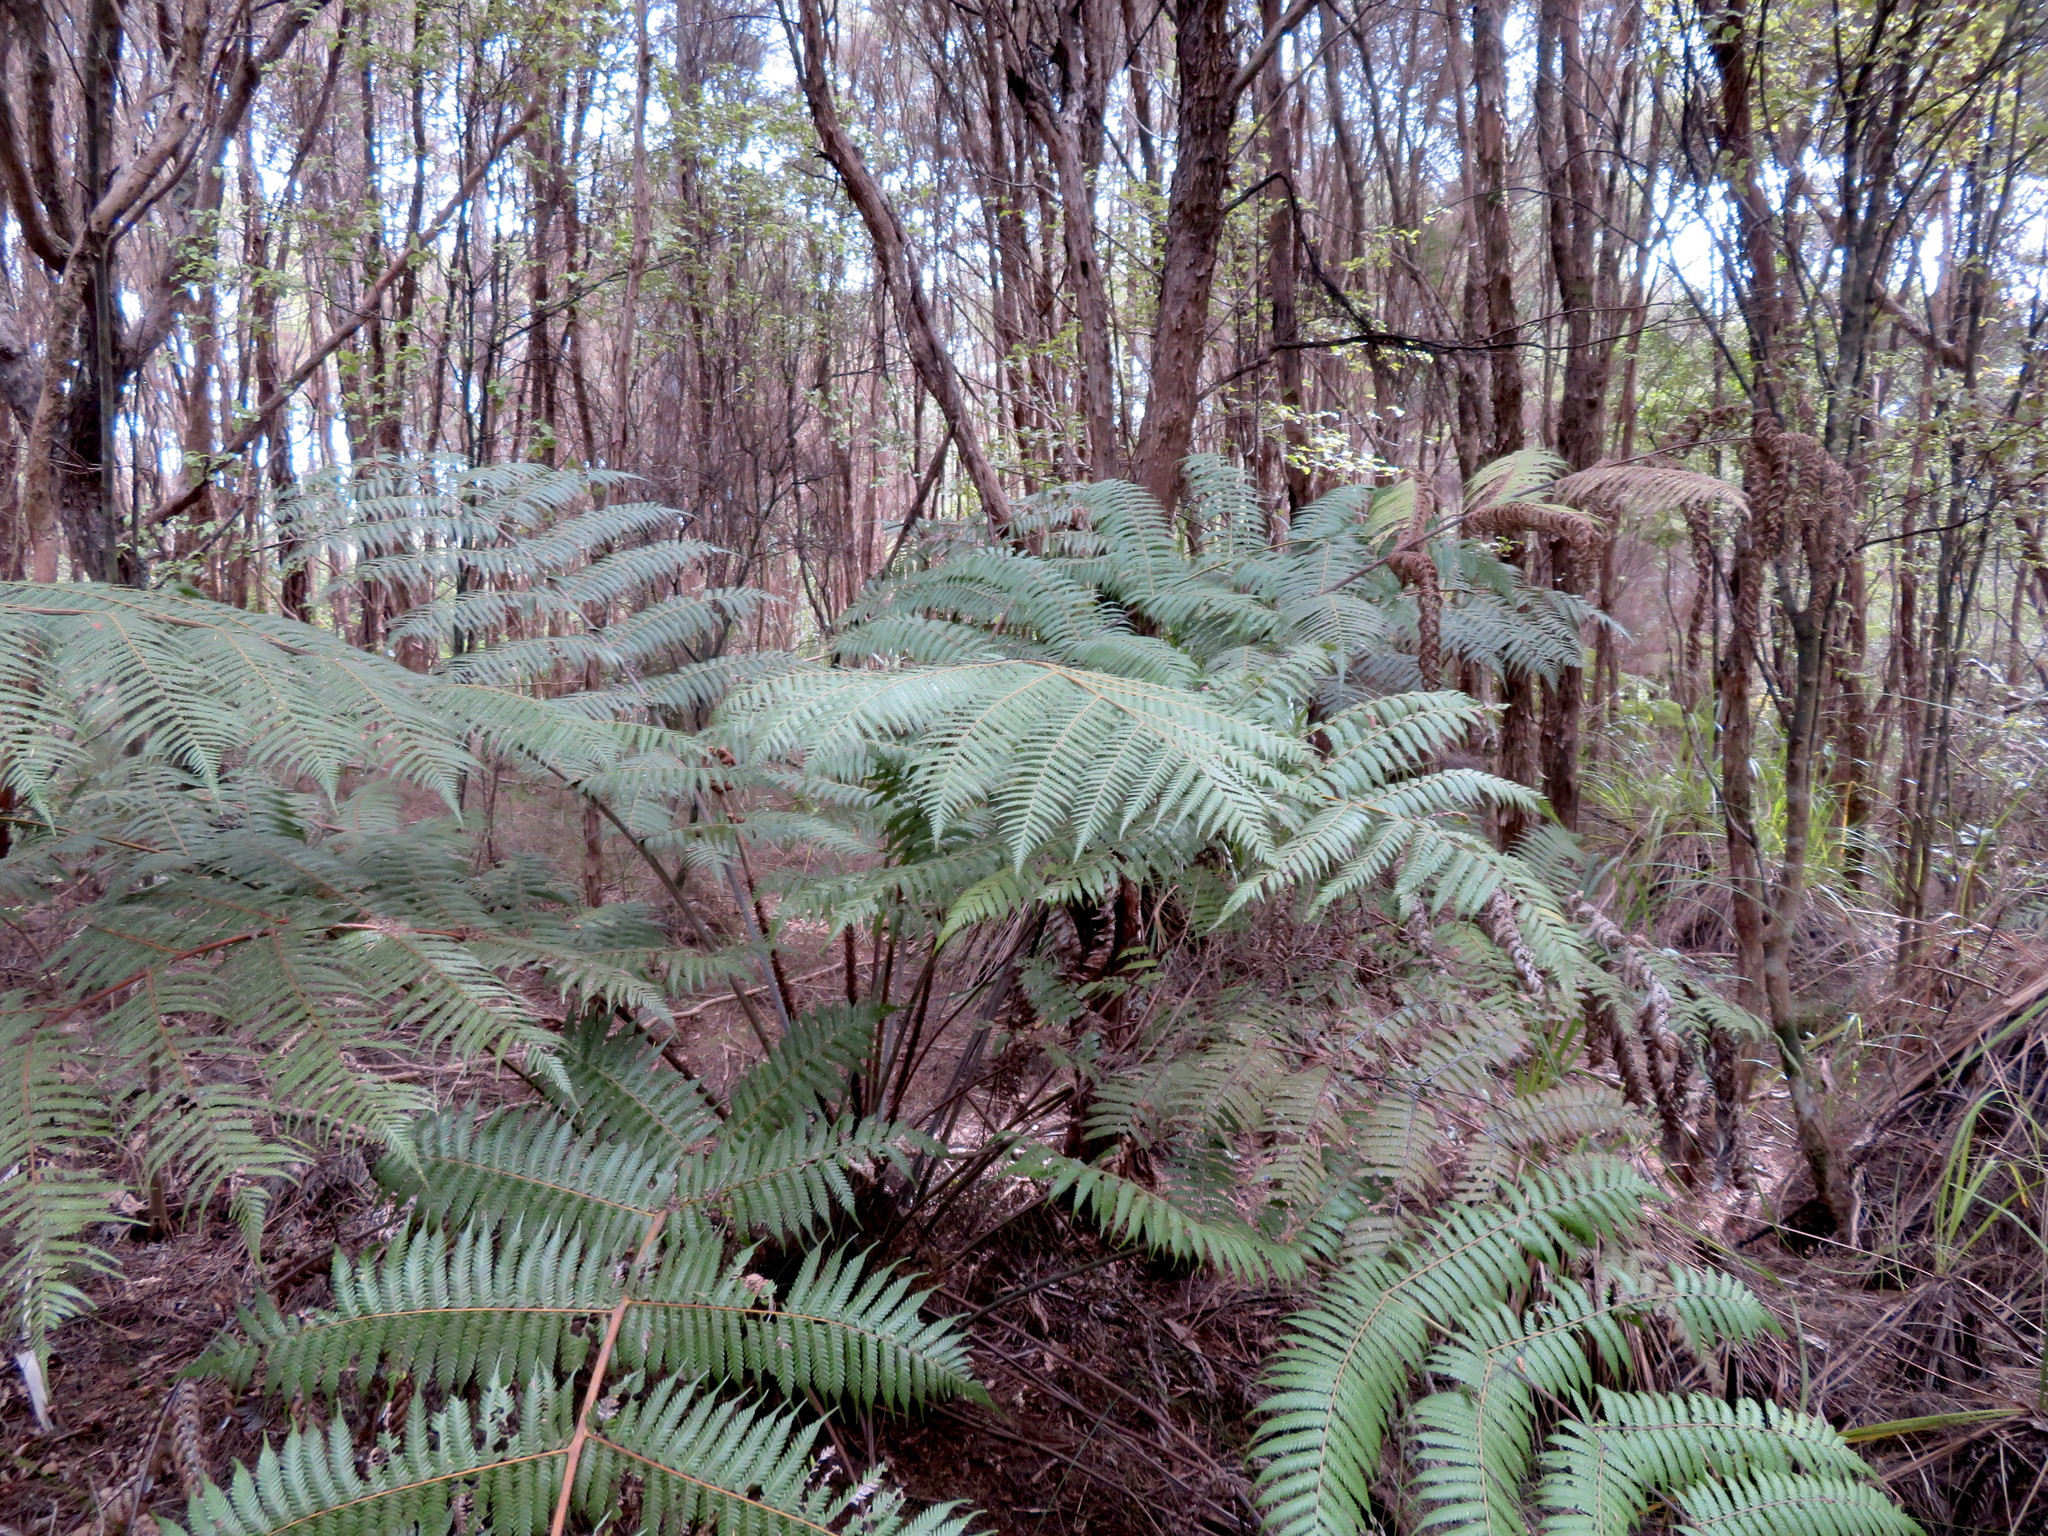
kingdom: Plantae
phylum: Tracheophyta
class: Polypodiopsida
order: Cyatheales
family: Cyatheaceae
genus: Alsophila
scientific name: Alsophila dealbata
